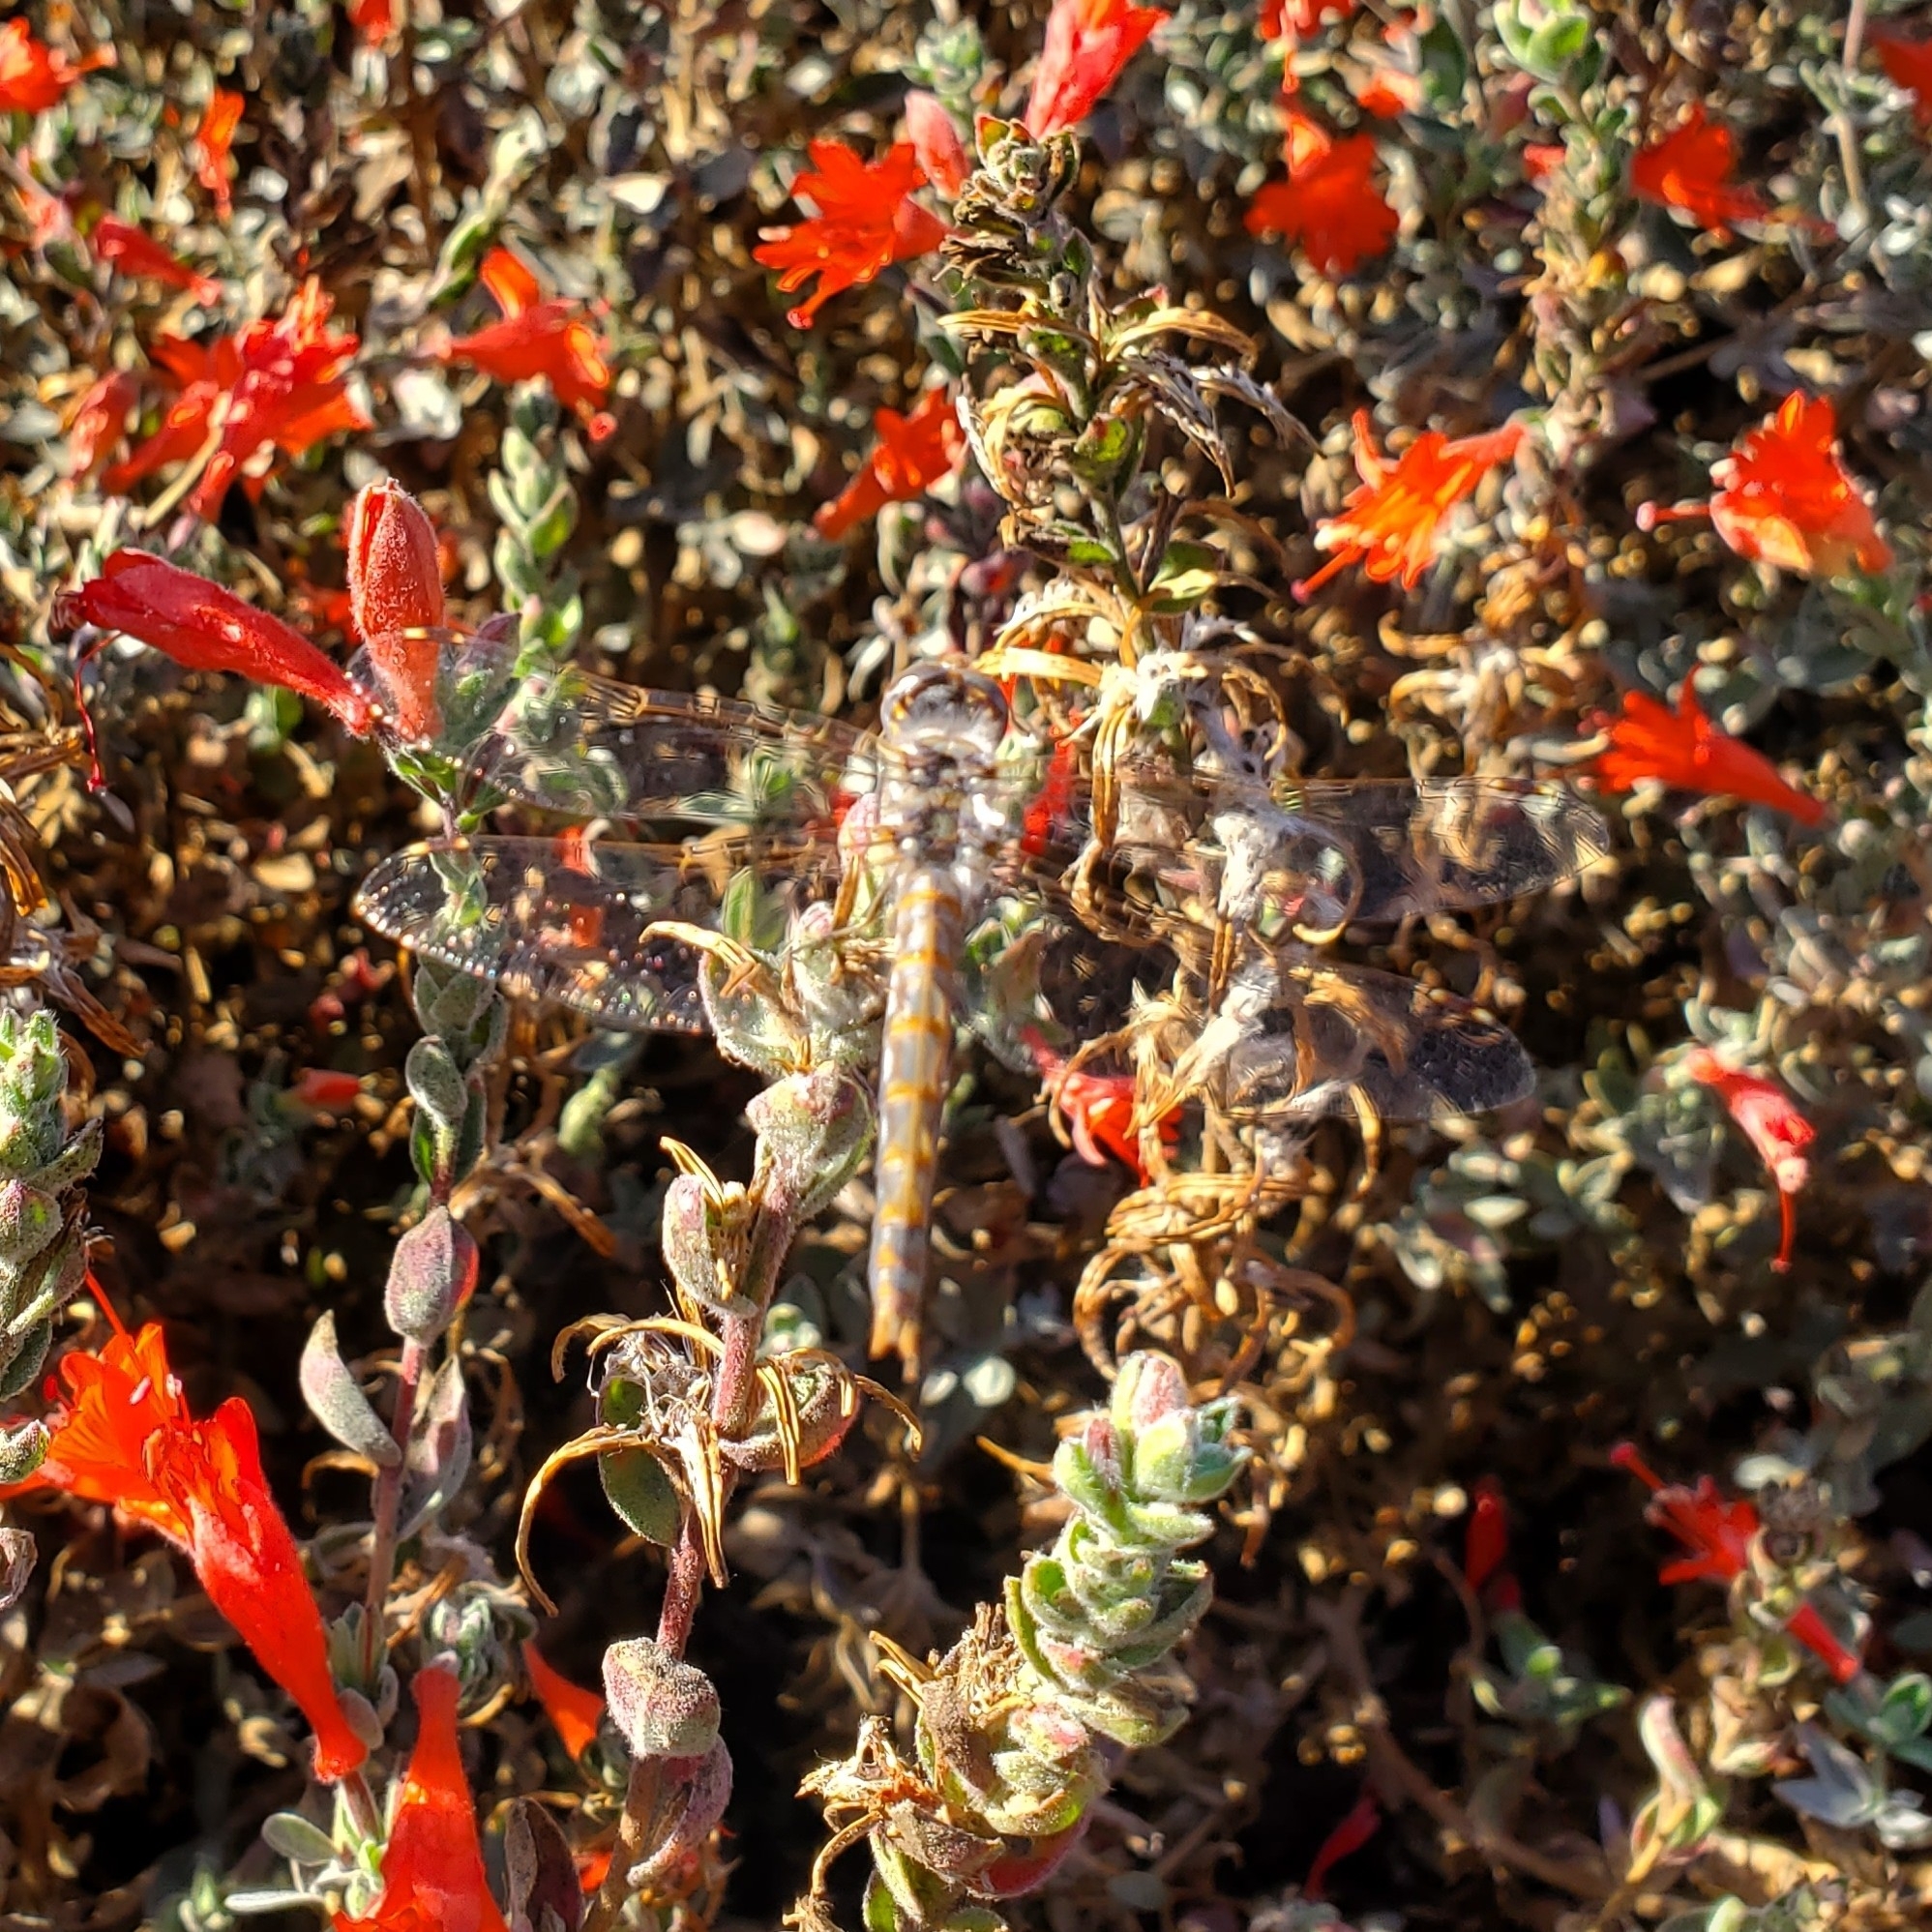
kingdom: Animalia
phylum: Arthropoda
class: Insecta
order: Odonata
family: Libellulidae
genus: Sympetrum
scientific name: Sympetrum corruptum
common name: Variegated meadowhawk
